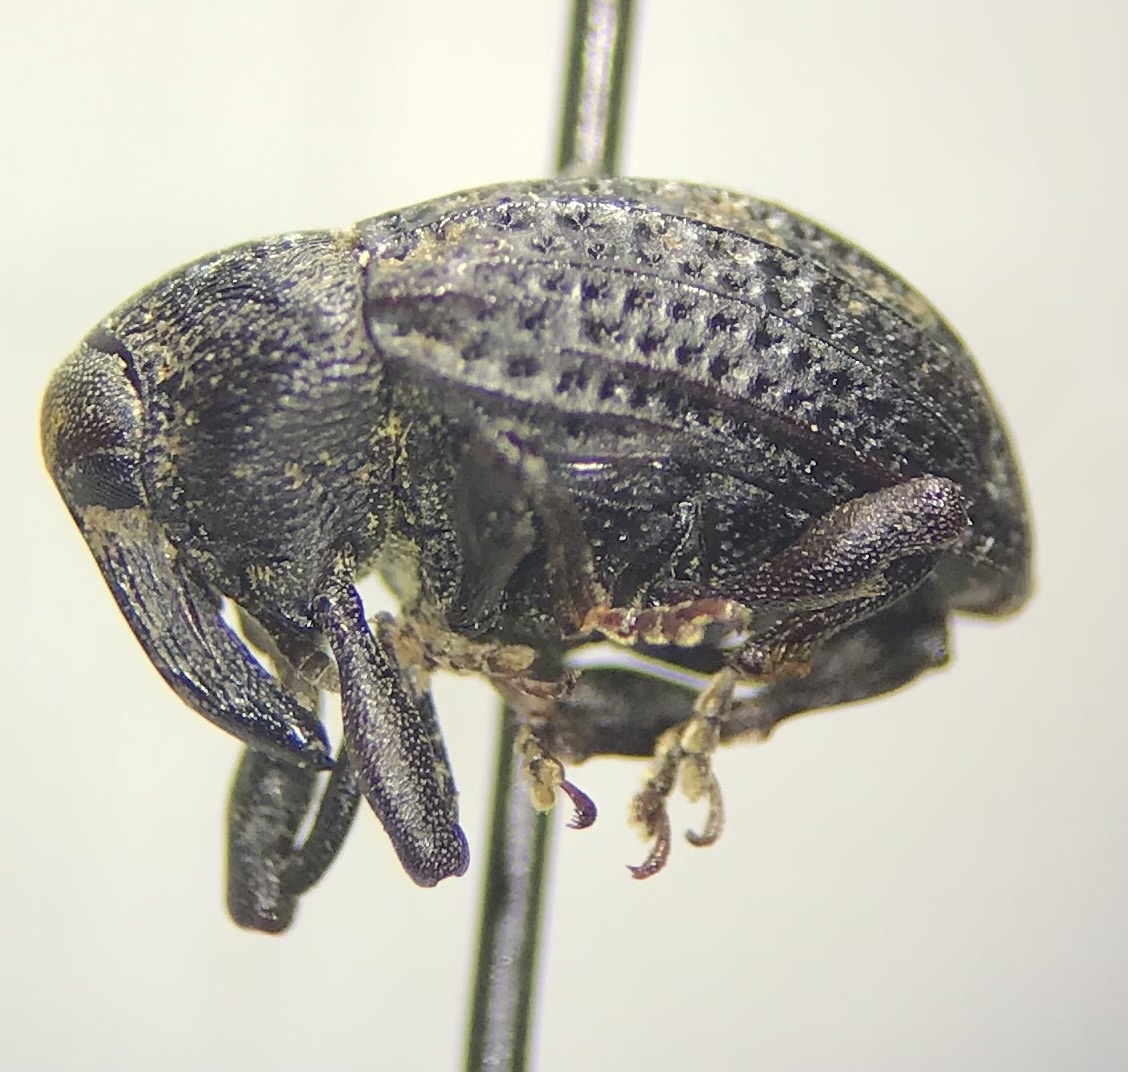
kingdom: Animalia
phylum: Arthropoda
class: Insecta
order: Coleoptera
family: Curculionidae
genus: Rhyssomatus
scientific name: Rhyssomatus lineaticollis
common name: Milkweed stem weevil
